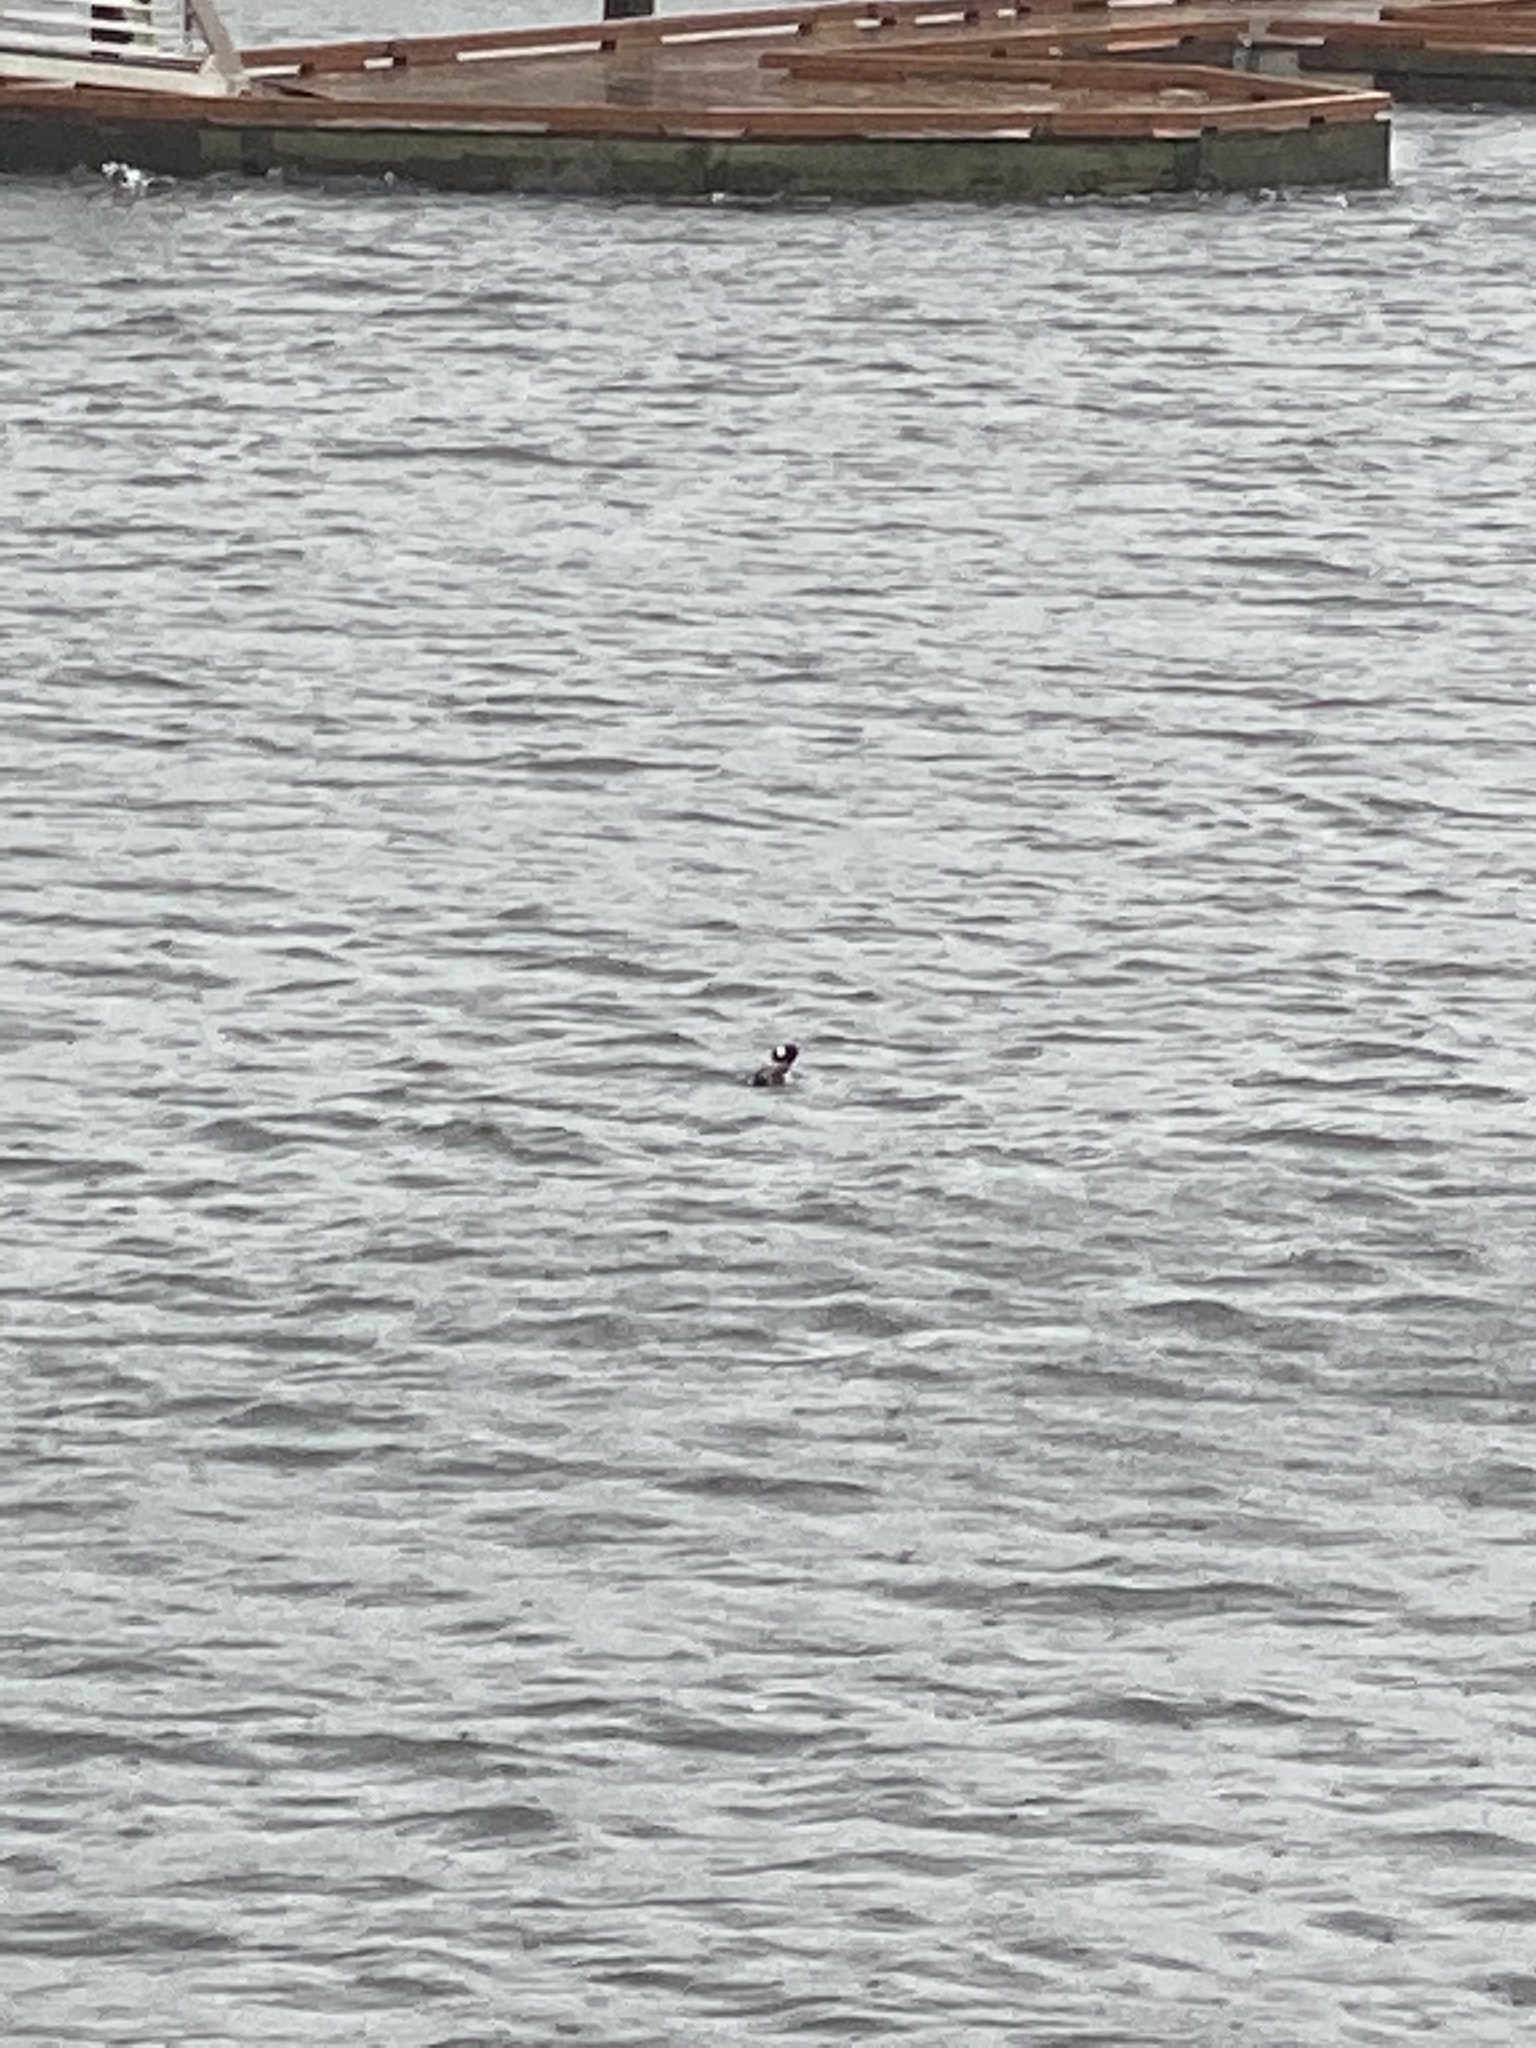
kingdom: Animalia
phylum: Chordata
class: Aves
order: Anseriformes
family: Anatidae
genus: Bucephala
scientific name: Bucephala albeola
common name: Bufflehead
